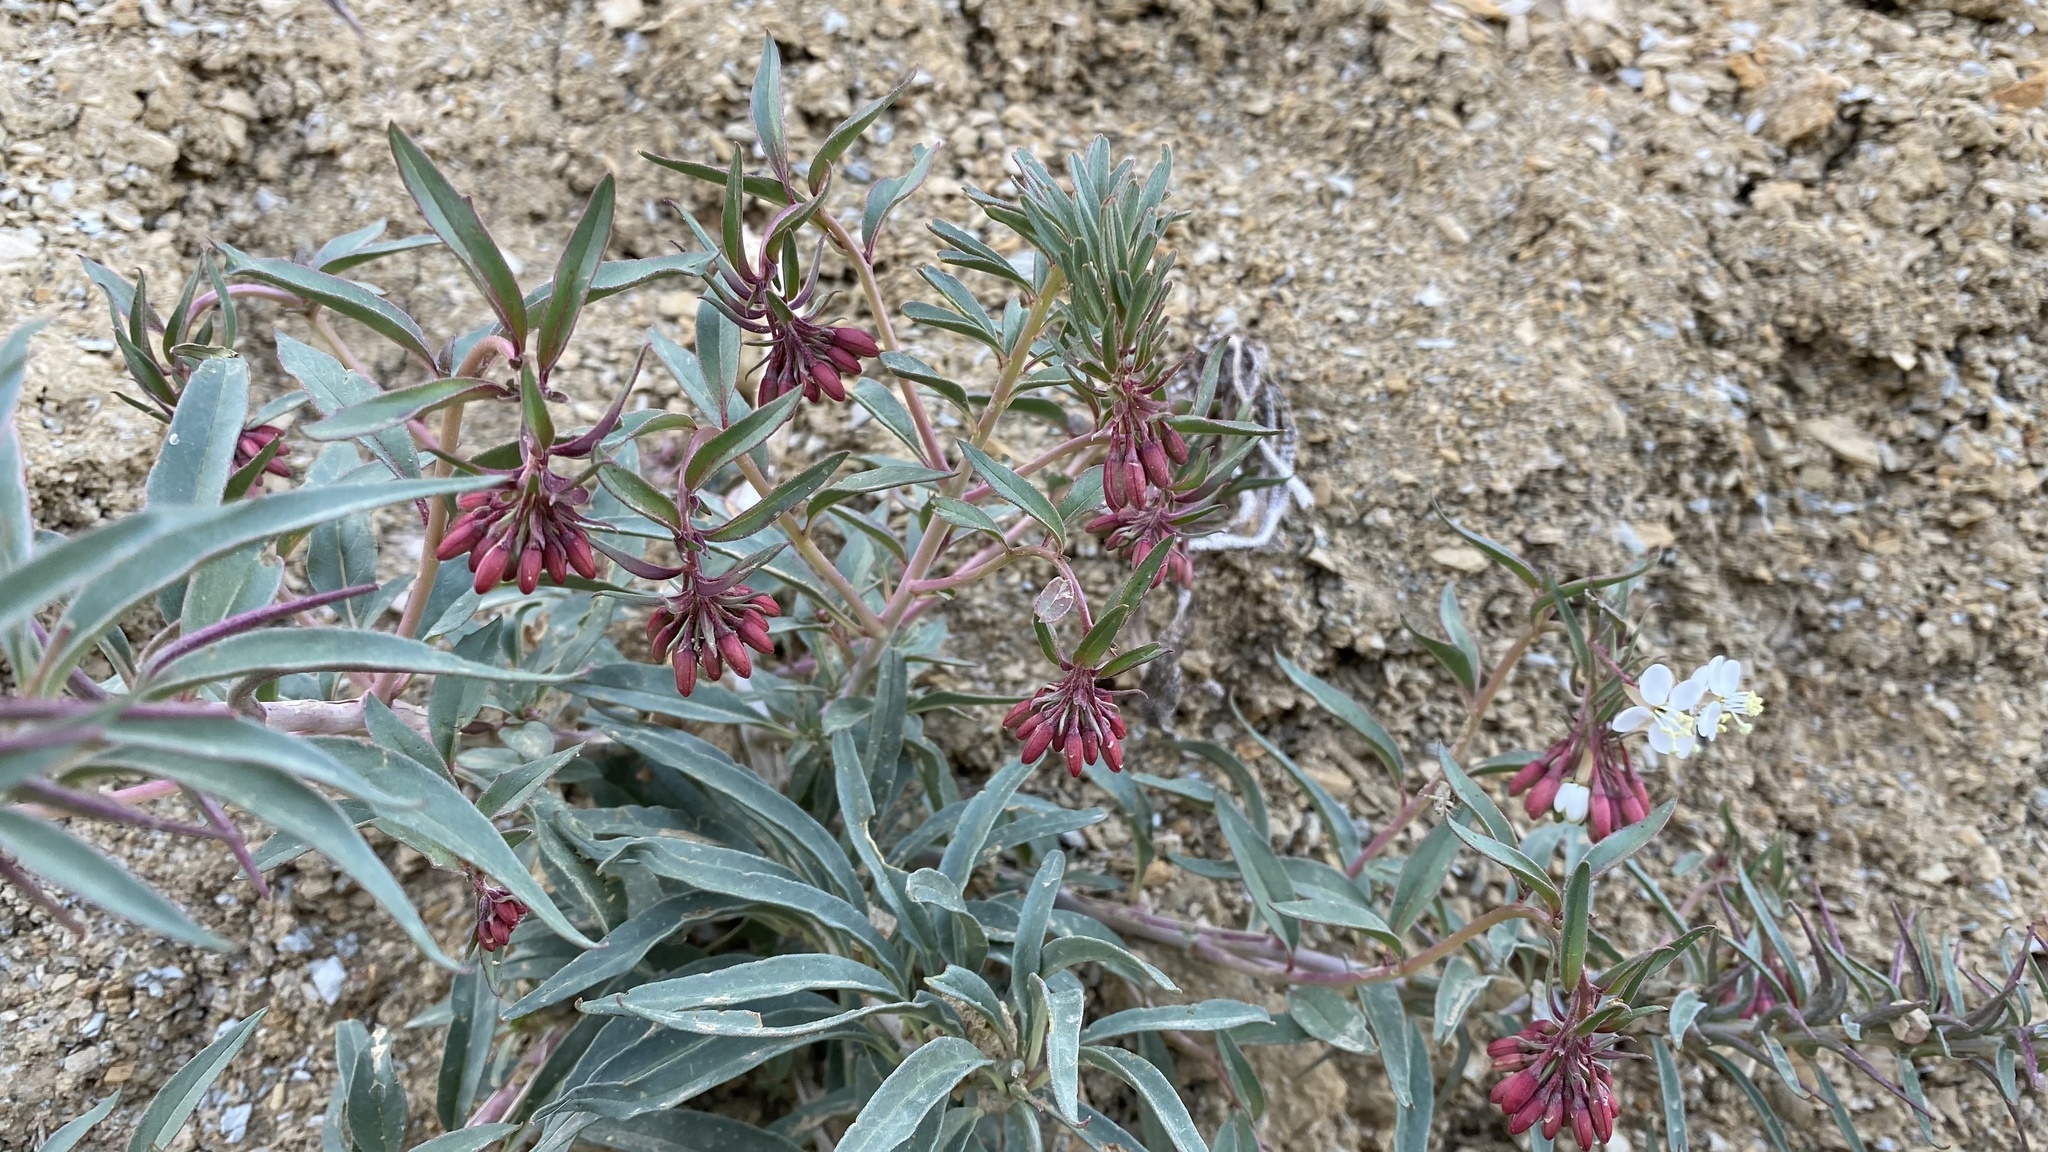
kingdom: Plantae
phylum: Tracheophyta
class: Magnoliopsida
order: Myrtales
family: Onagraceae
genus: Eremothera
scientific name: Eremothera boothii
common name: Booth's evening primrose
